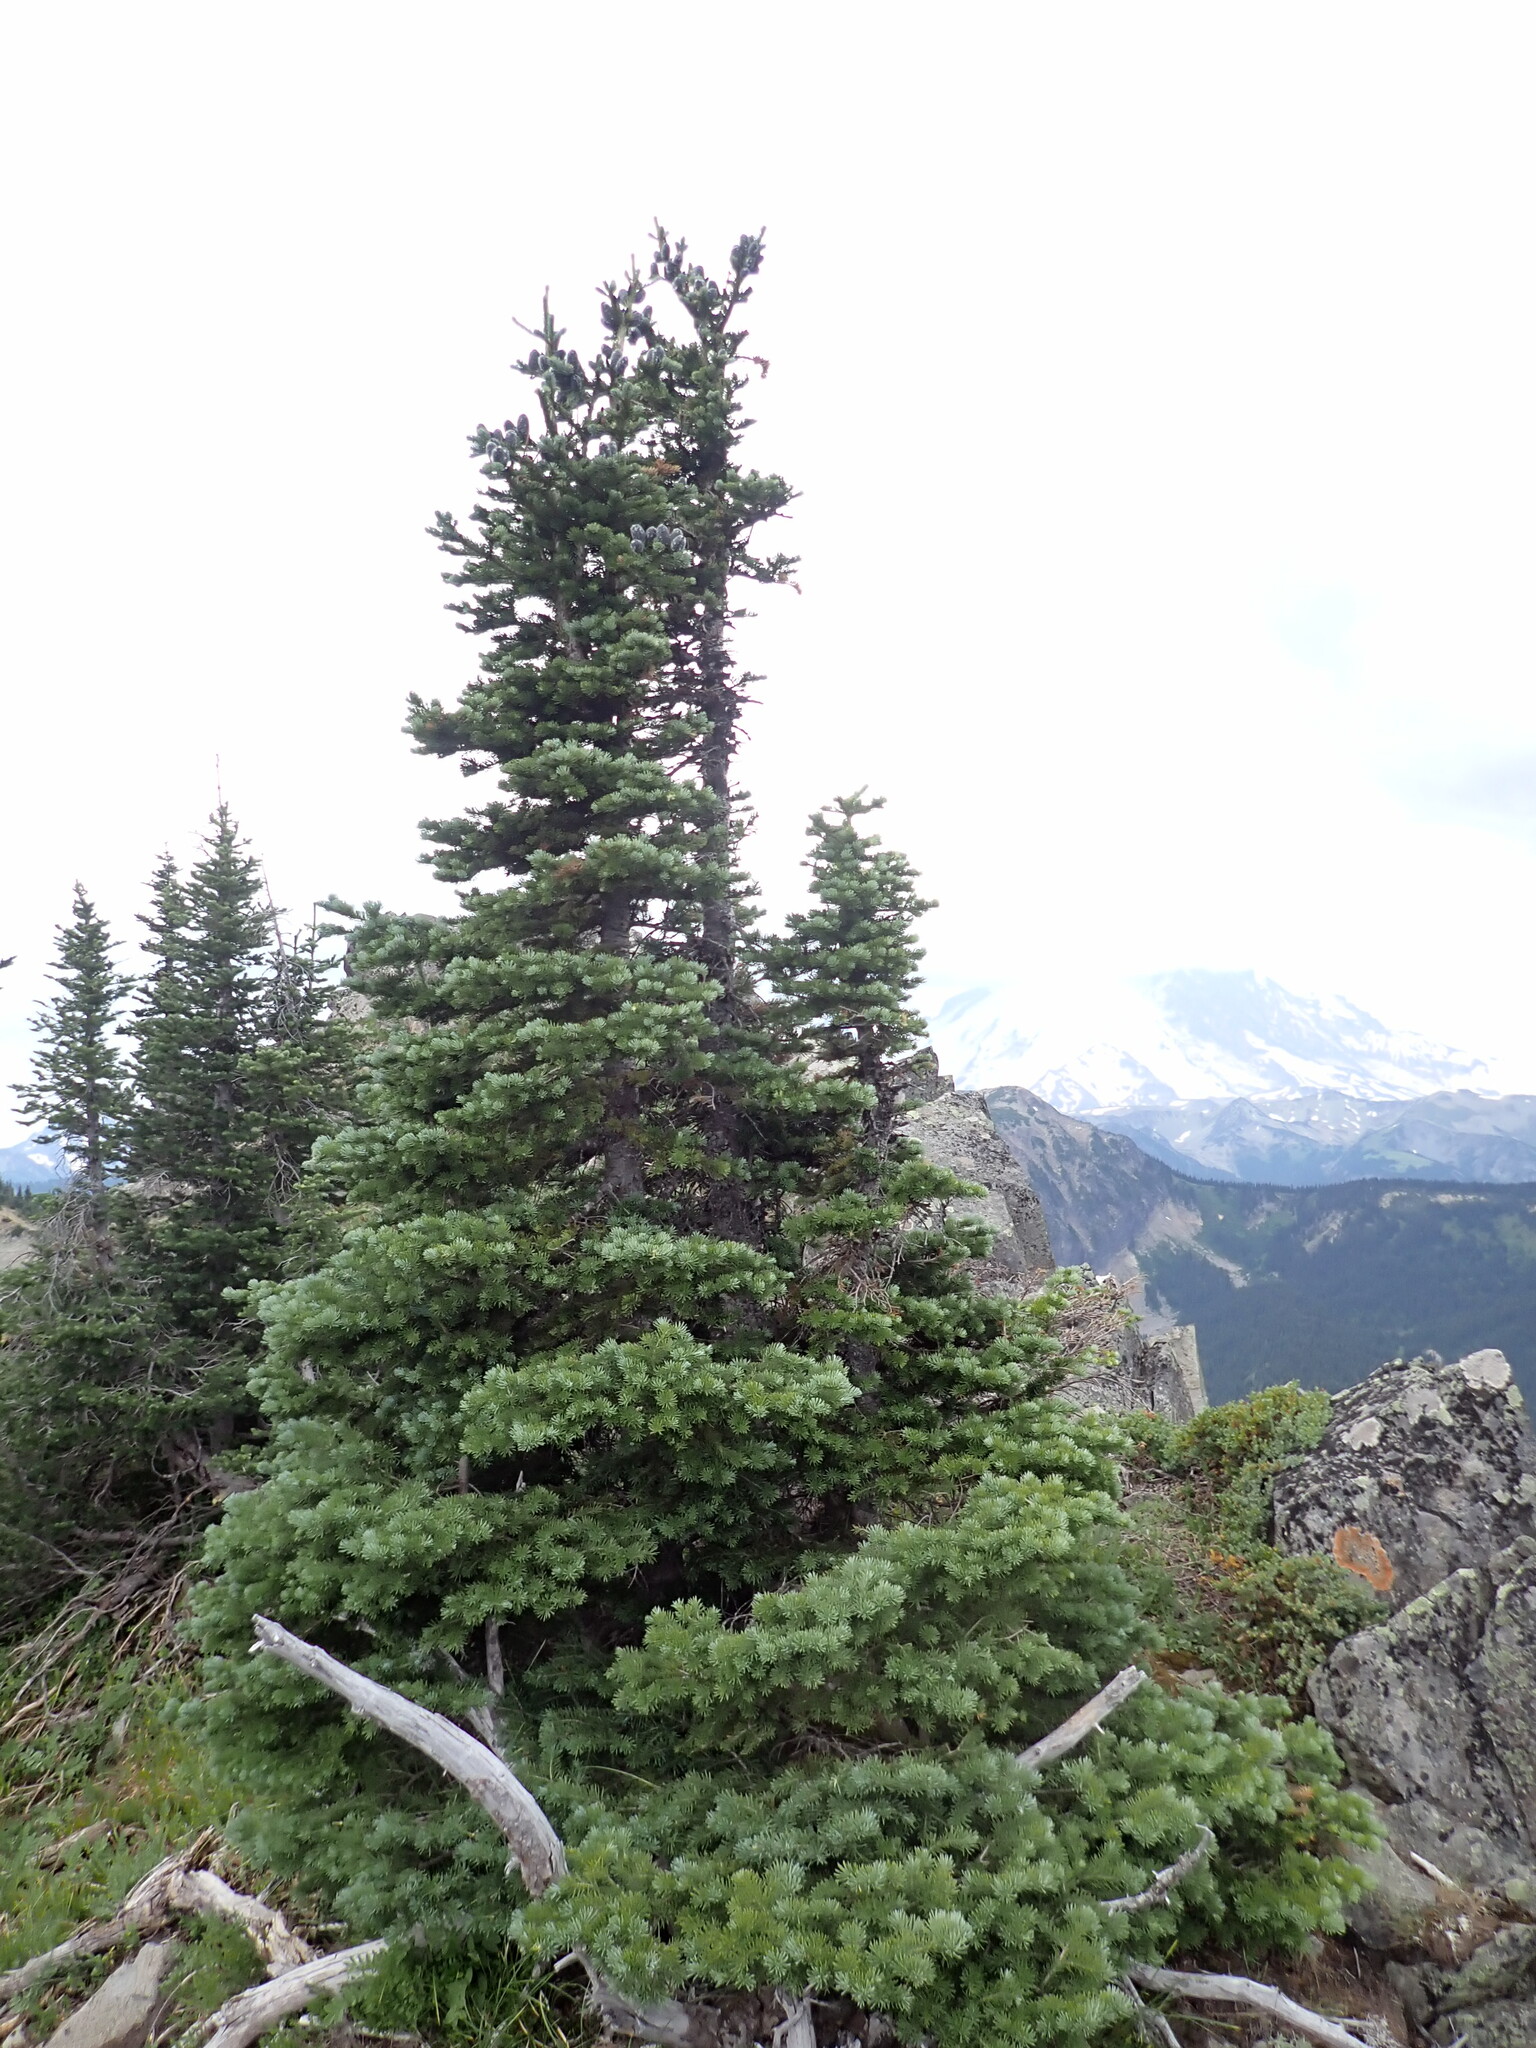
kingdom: Plantae
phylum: Tracheophyta
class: Pinopsida
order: Pinales
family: Pinaceae
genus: Abies
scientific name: Abies lasiocarpa
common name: Subalpine fir
